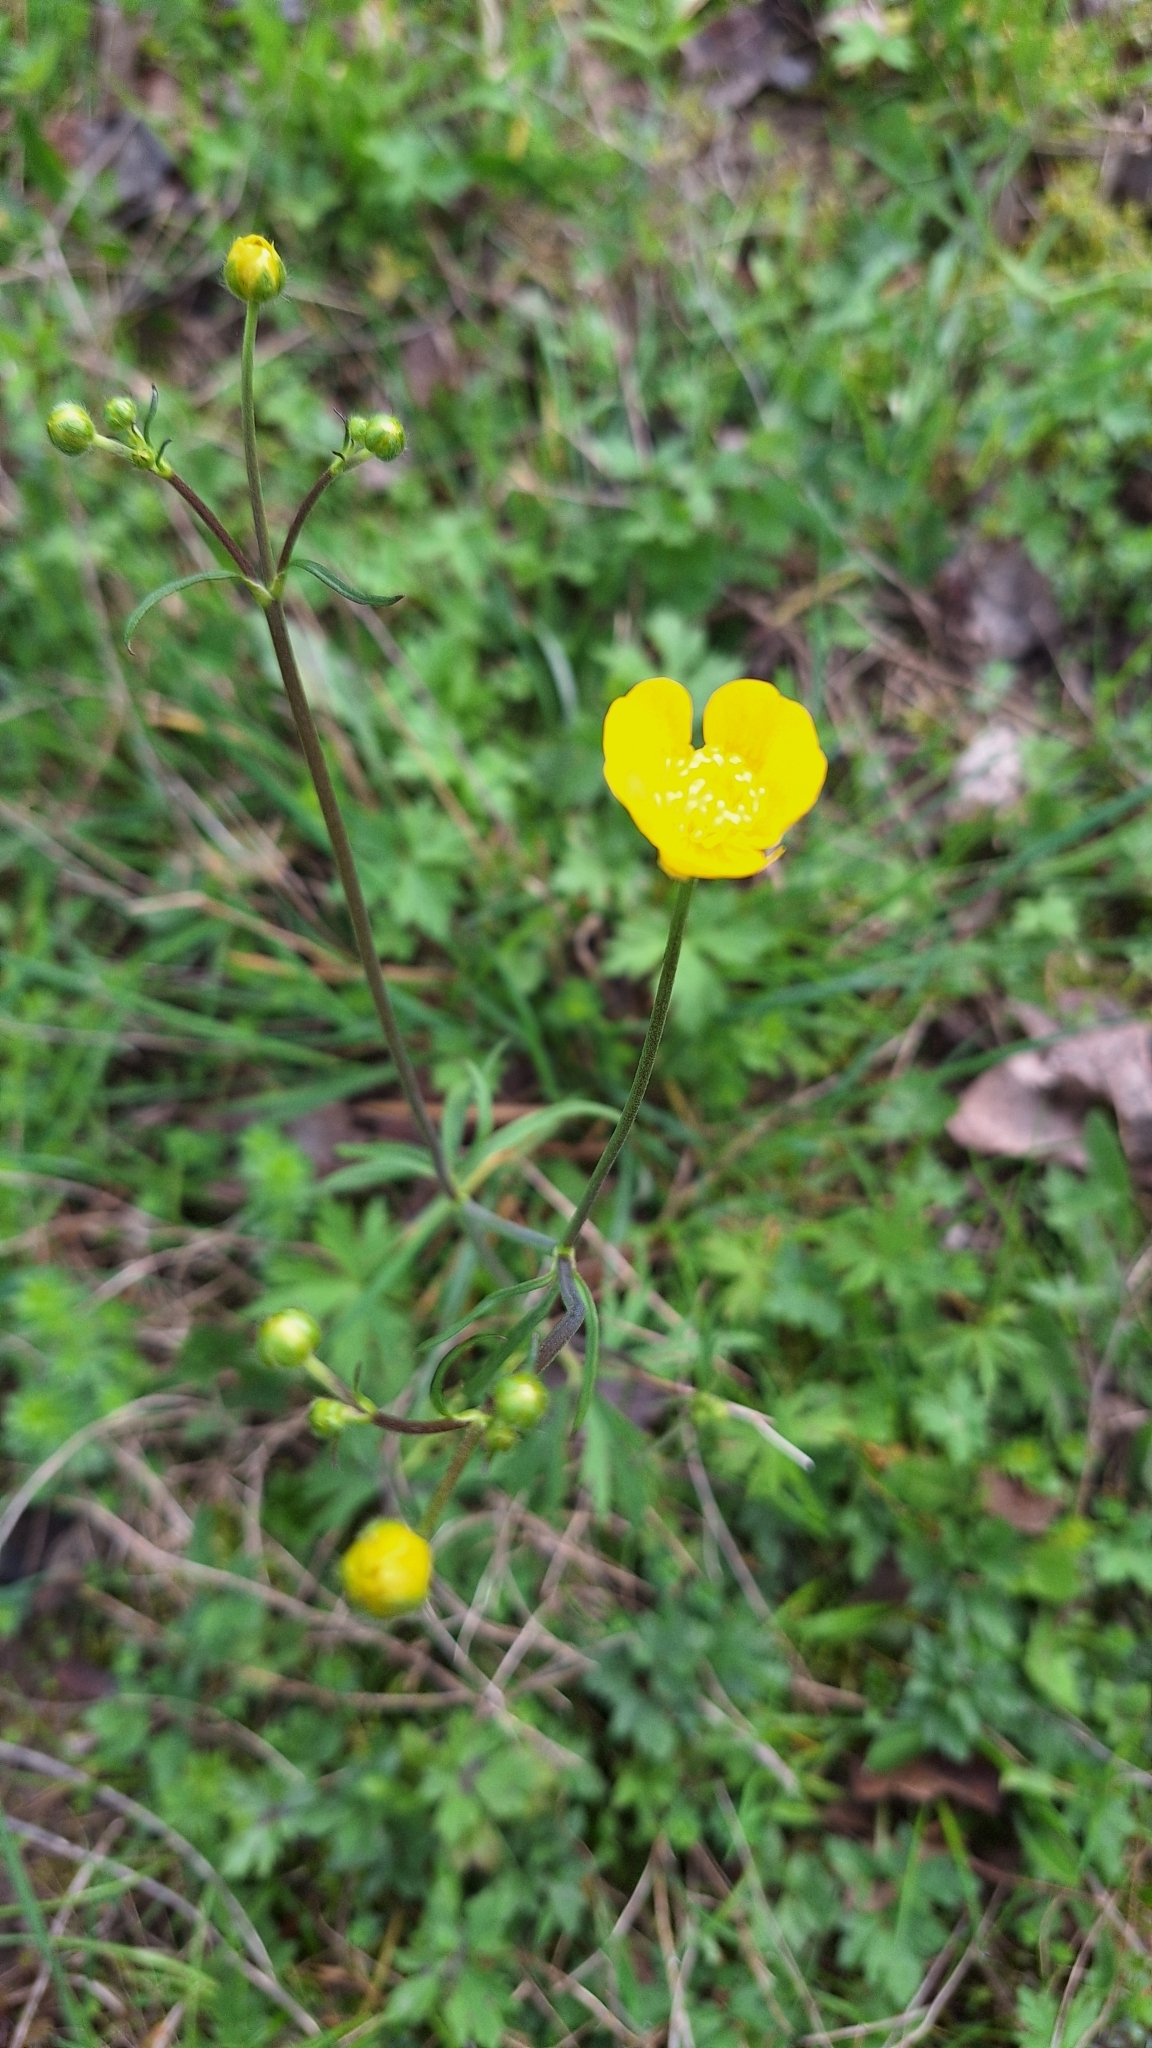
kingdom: Plantae
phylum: Tracheophyta
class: Magnoliopsida
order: Ranunculales
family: Ranunculaceae
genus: Ranunculus
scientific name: Ranunculus acris
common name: Meadow buttercup
